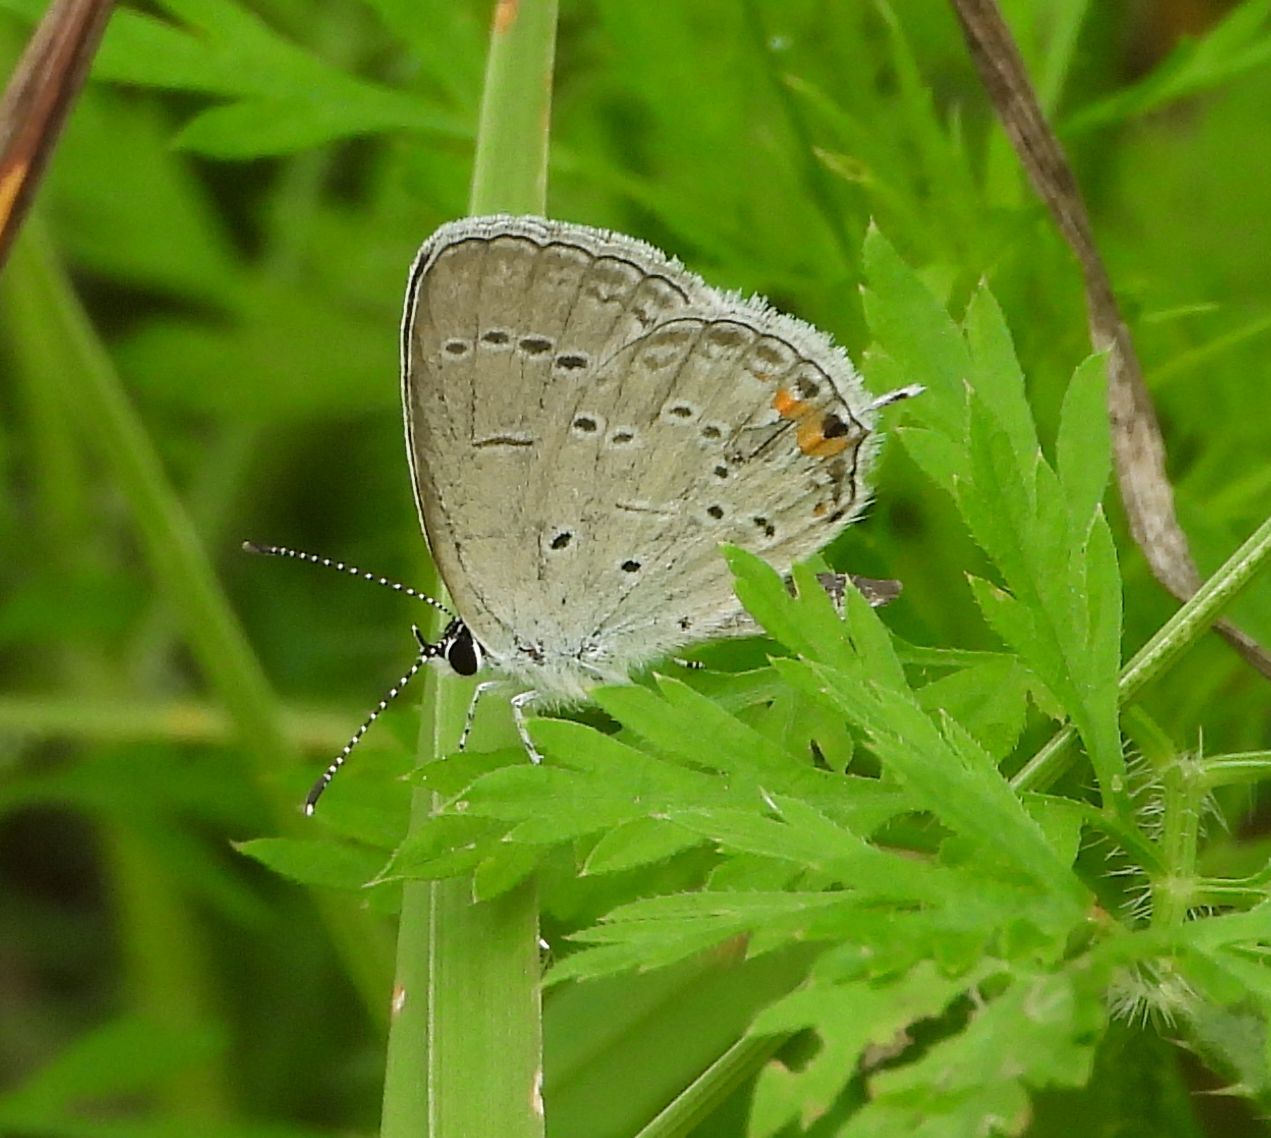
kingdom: Animalia
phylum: Arthropoda
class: Insecta
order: Lepidoptera
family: Lycaenidae
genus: Elkalyce
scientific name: Elkalyce comyntas
